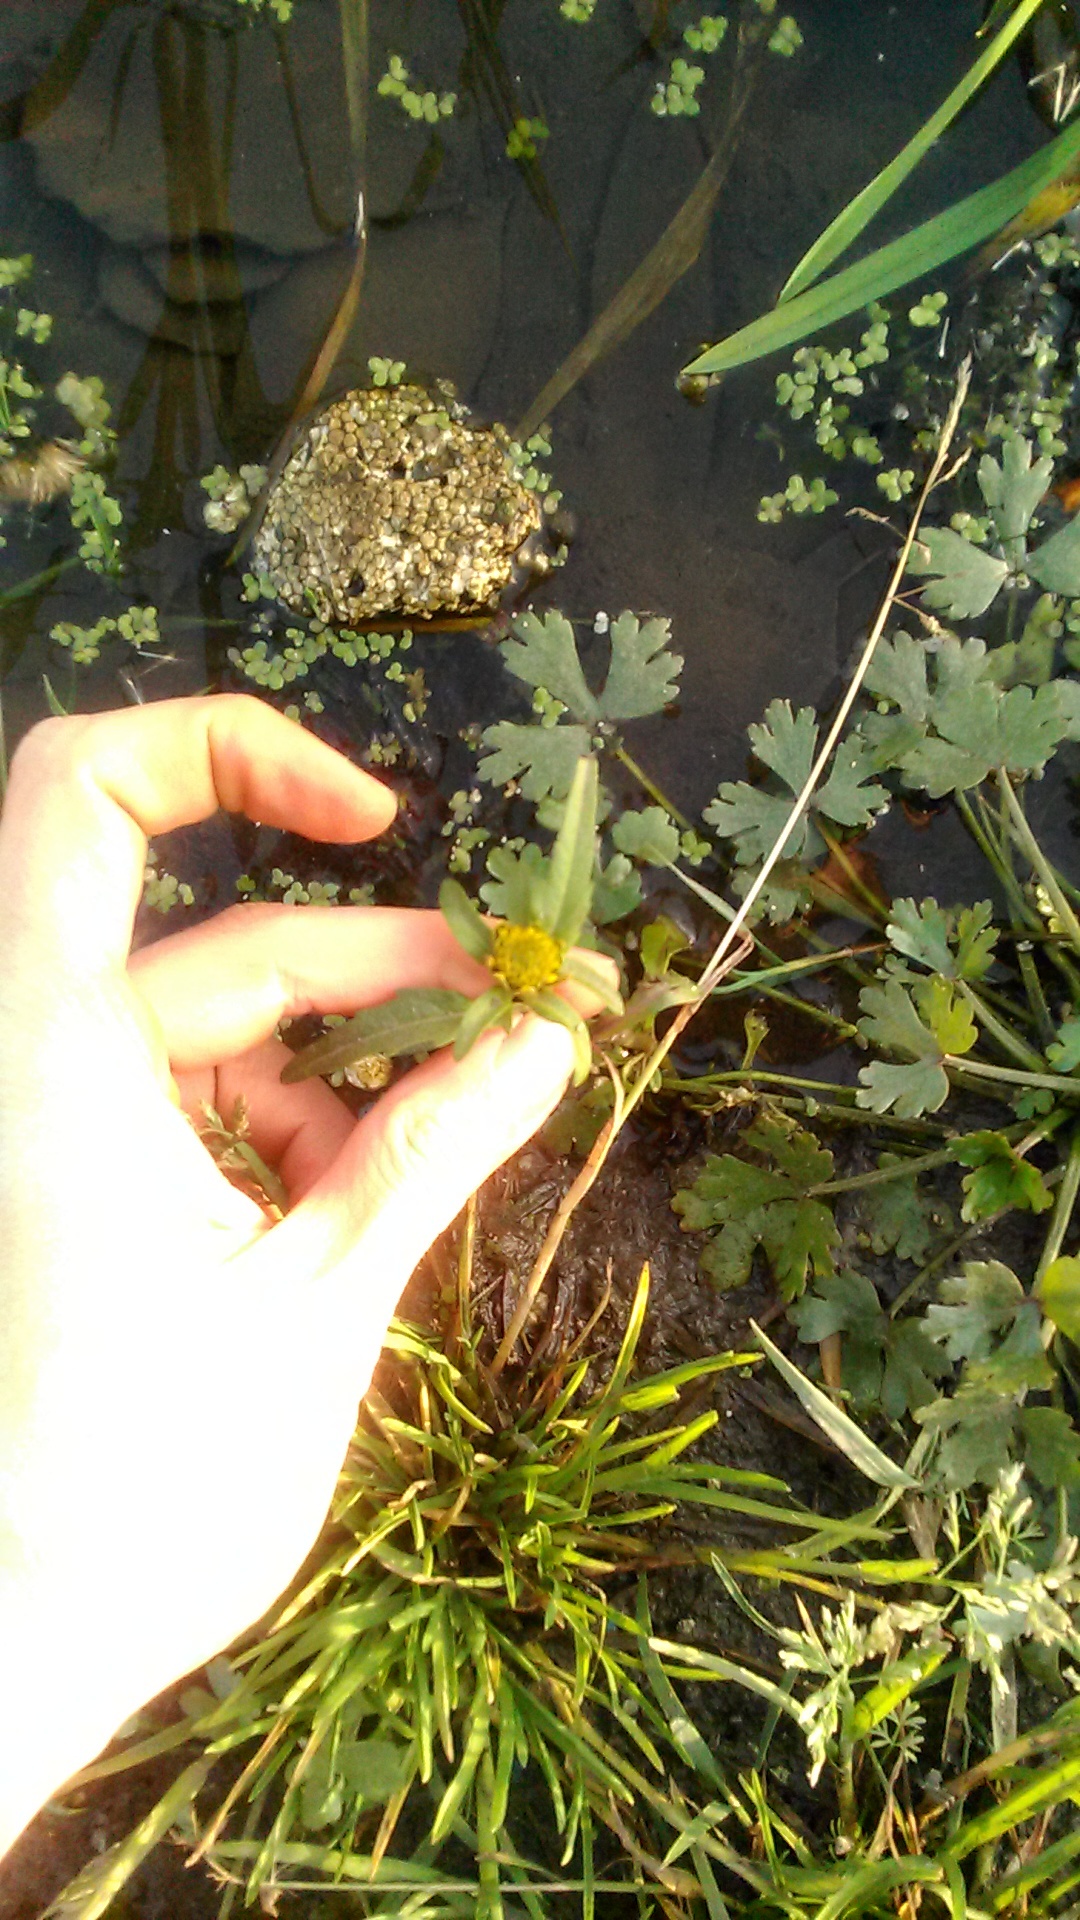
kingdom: Plantae
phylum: Tracheophyta
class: Magnoliopsida
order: Asterales
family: Asteraceae
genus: Bidens
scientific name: Bidens cernua
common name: Nodding bur-marigold
